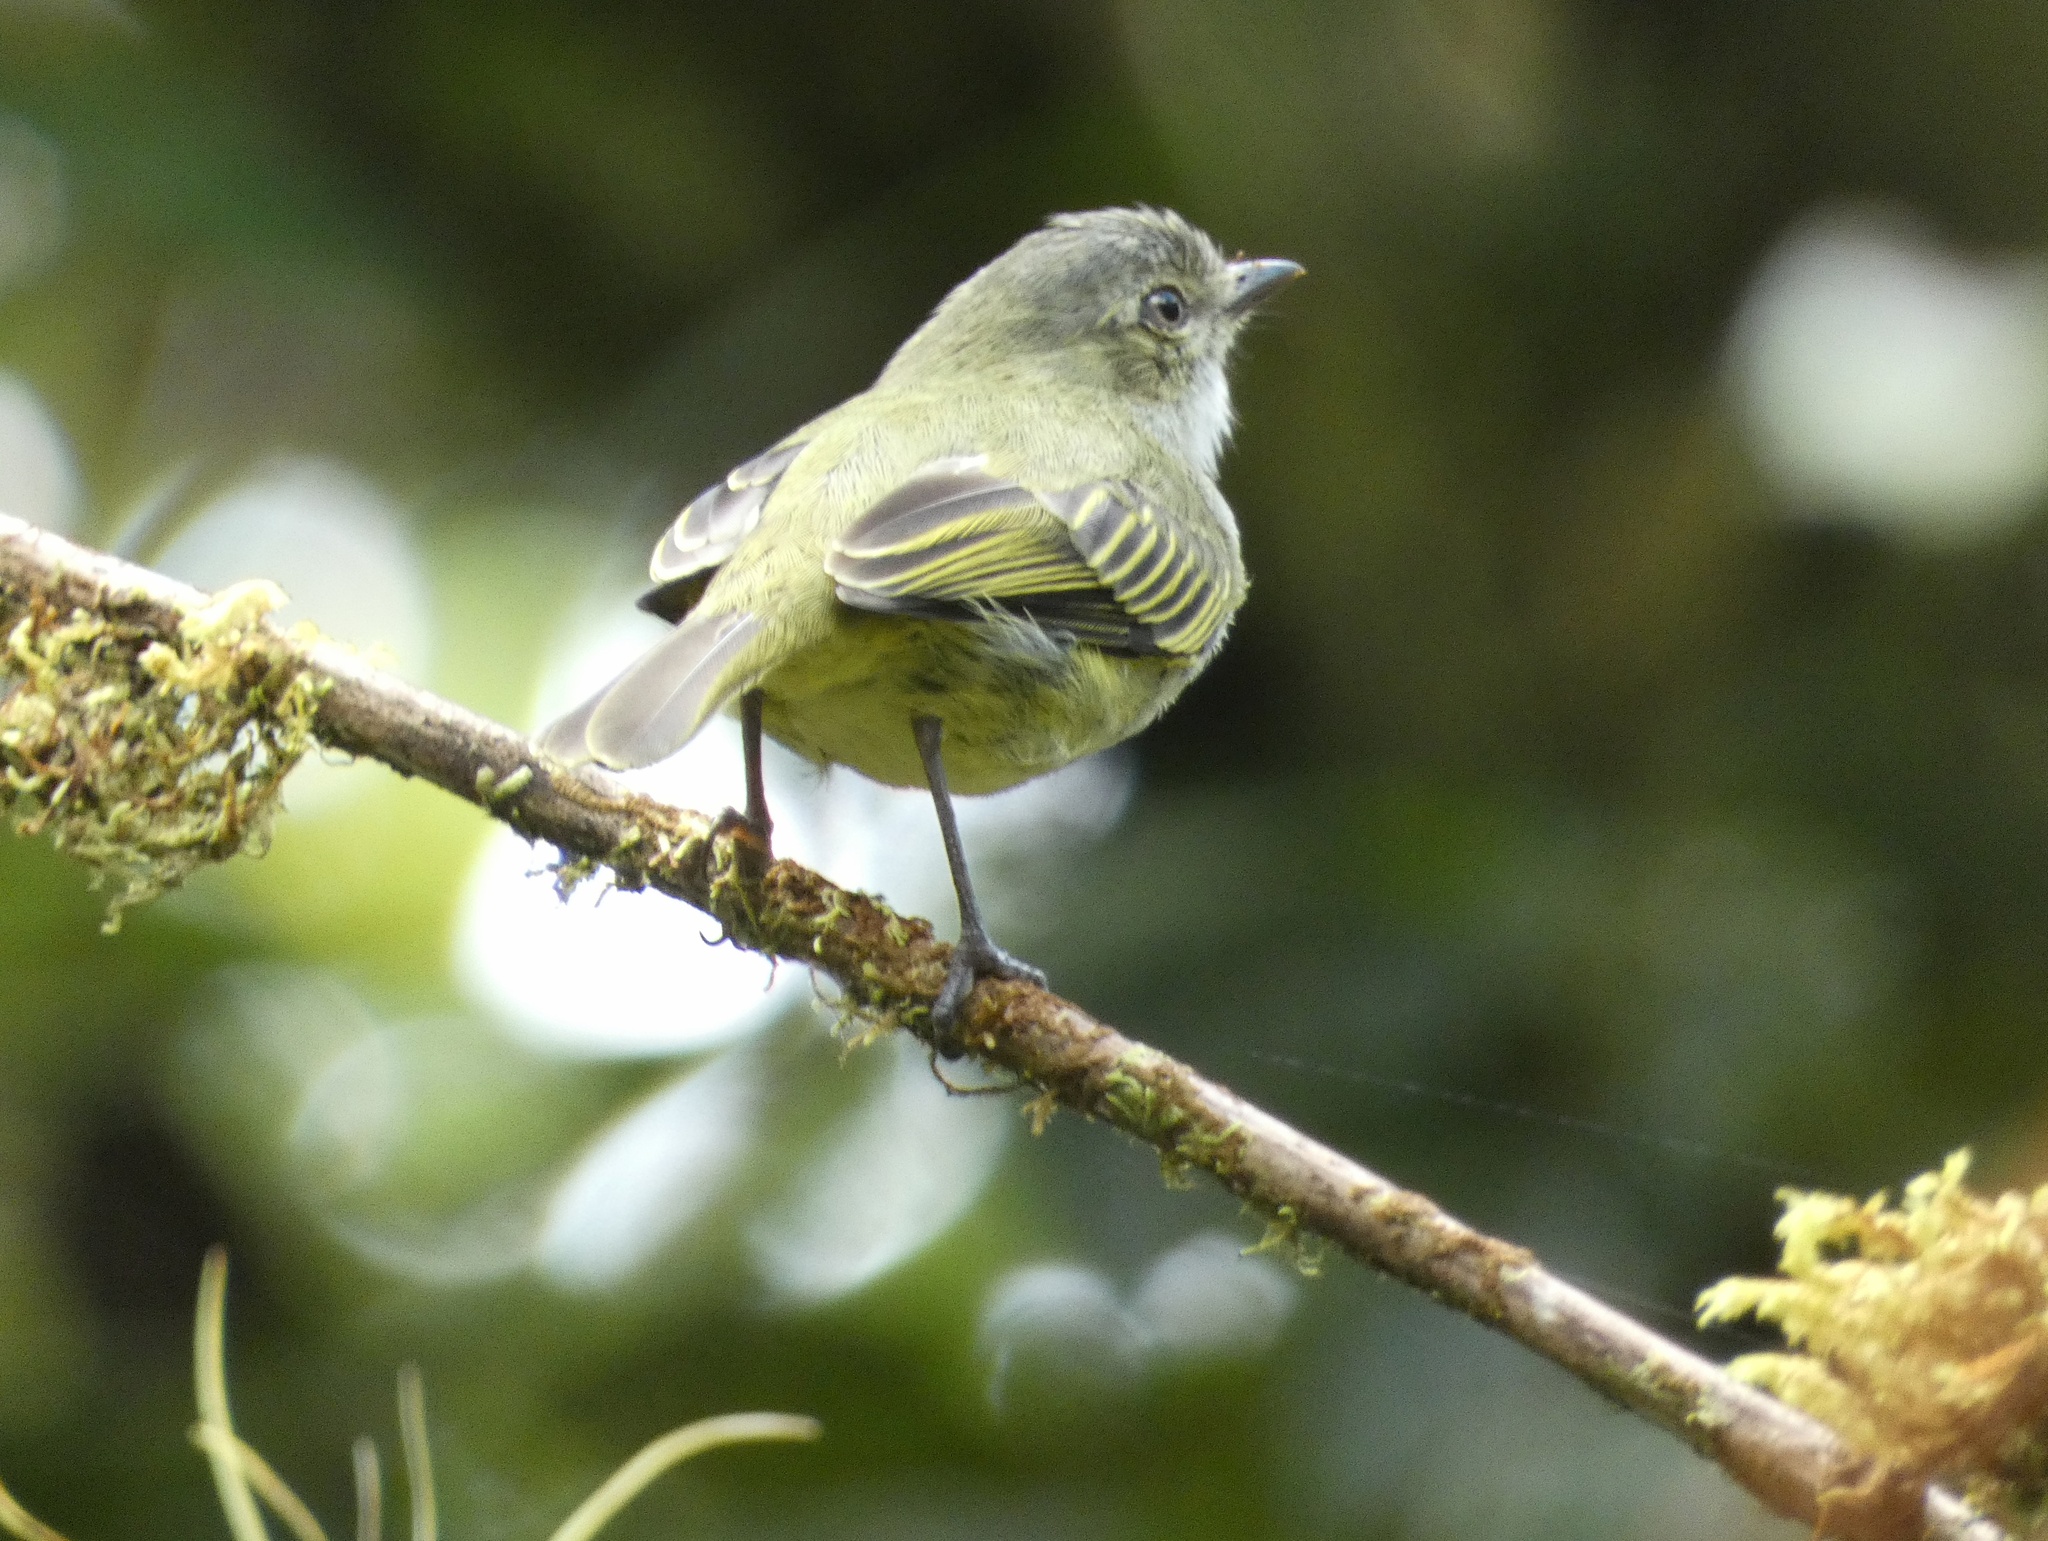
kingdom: Animalia
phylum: Chordata
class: Aves
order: Passeriformes
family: Tyrannidae
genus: Zimmerius
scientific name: Zimmerius vilissimus
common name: Paltry tyrannulet
